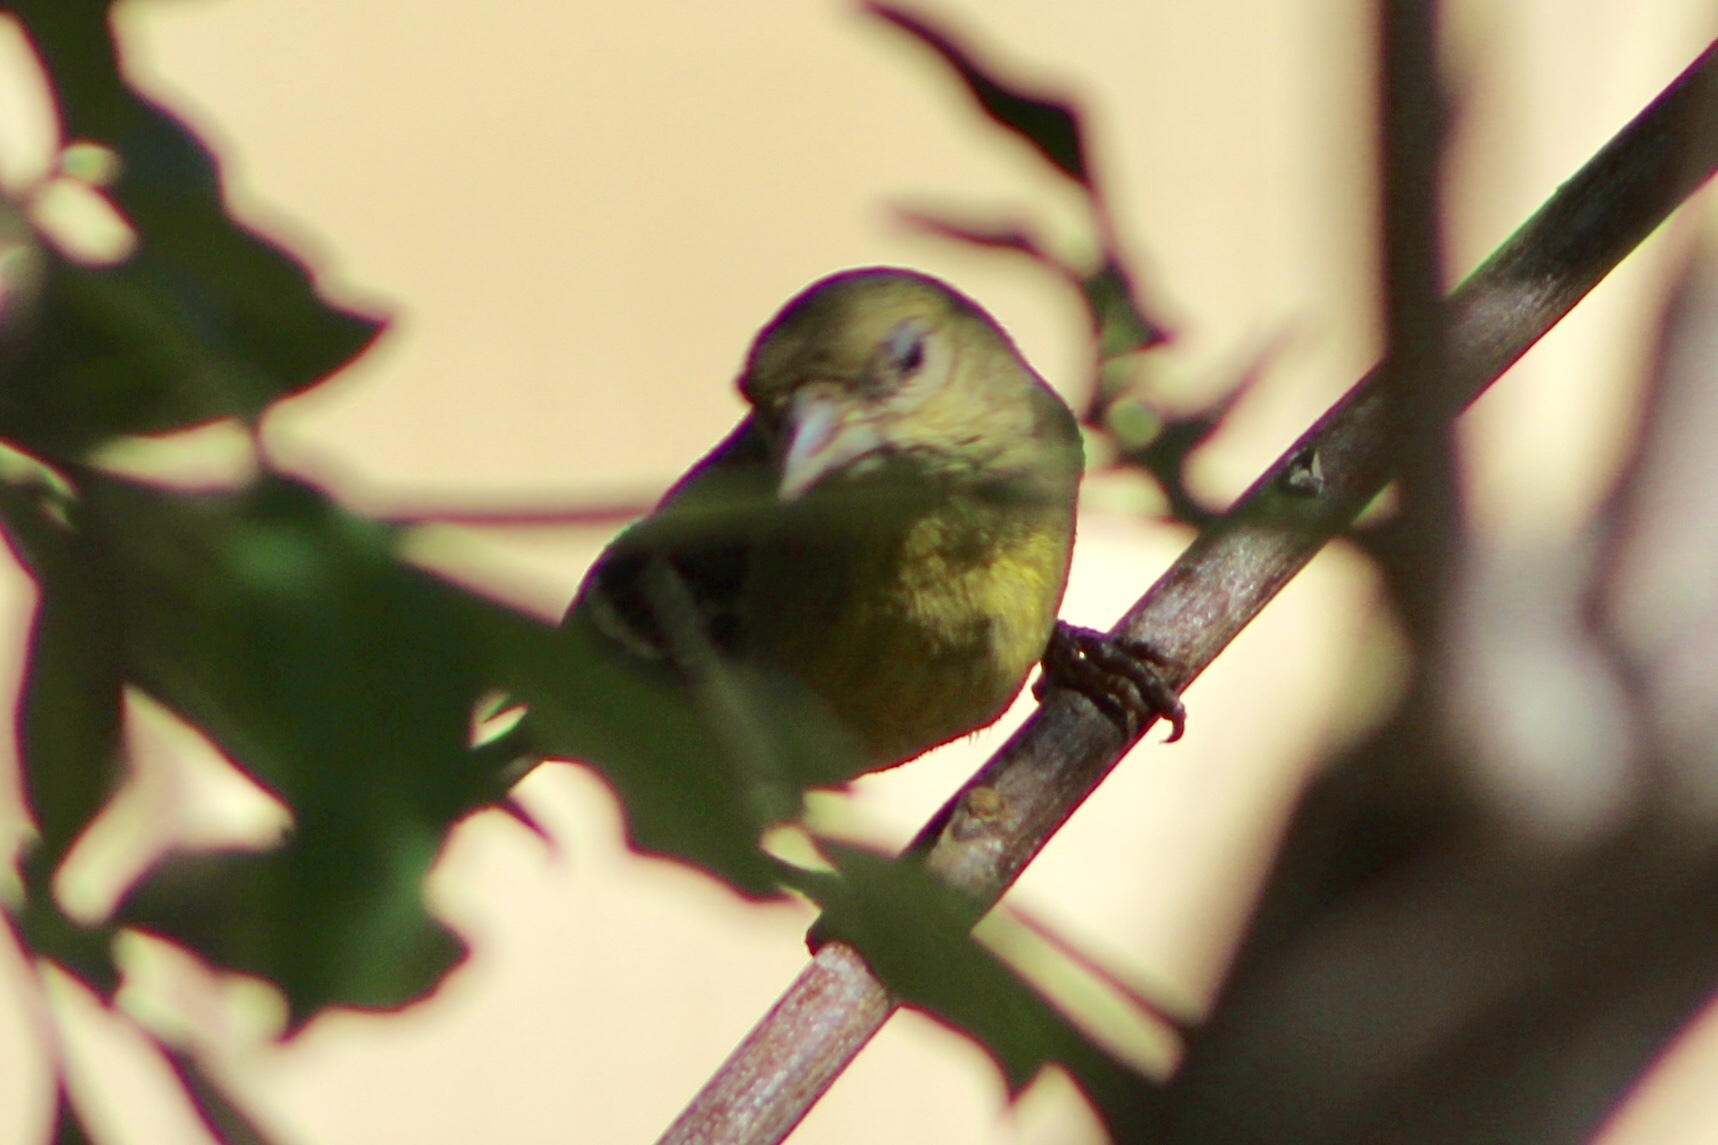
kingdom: Animalia
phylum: Chordata
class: Aves
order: Passeriformes
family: Fringillidae
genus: Spinus
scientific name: Spinus psaltria
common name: Lesser goldfinch
